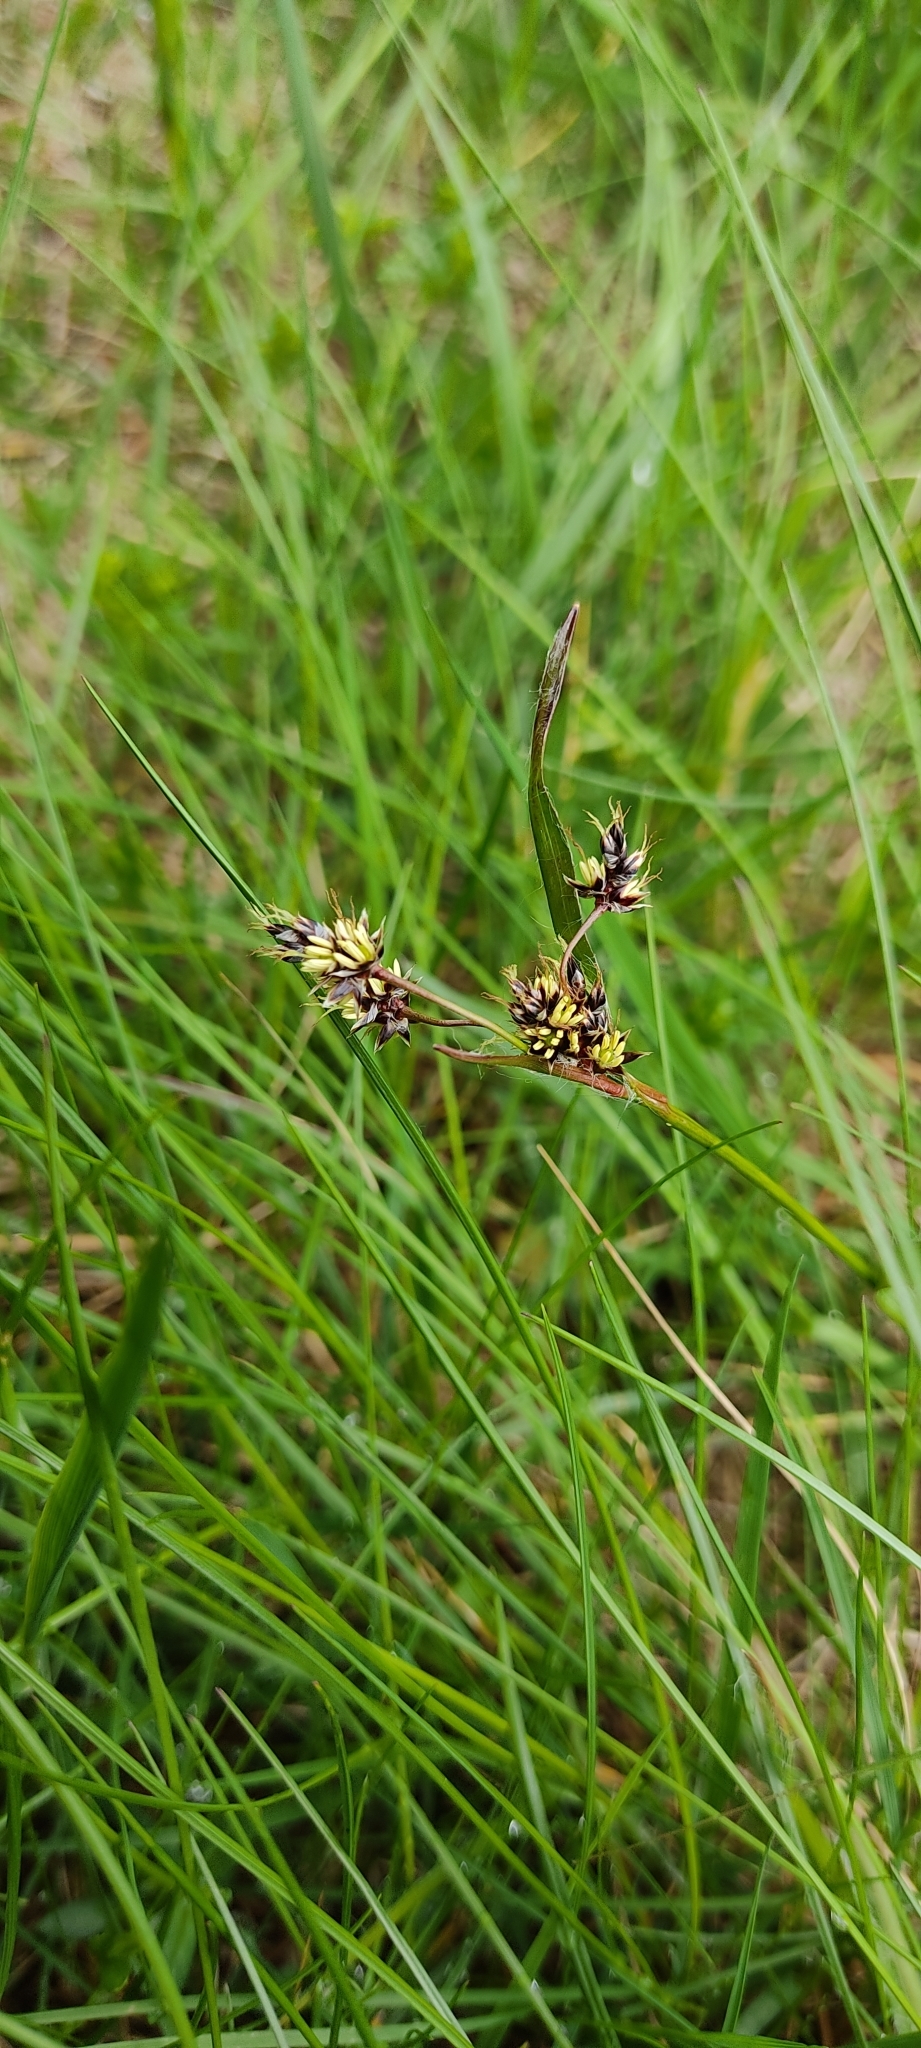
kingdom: Plantae
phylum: Tracheophyta
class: Liliopsida
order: Poales
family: Juncaceae
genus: Luzula
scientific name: Luzula campestris
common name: Field wood-rush
